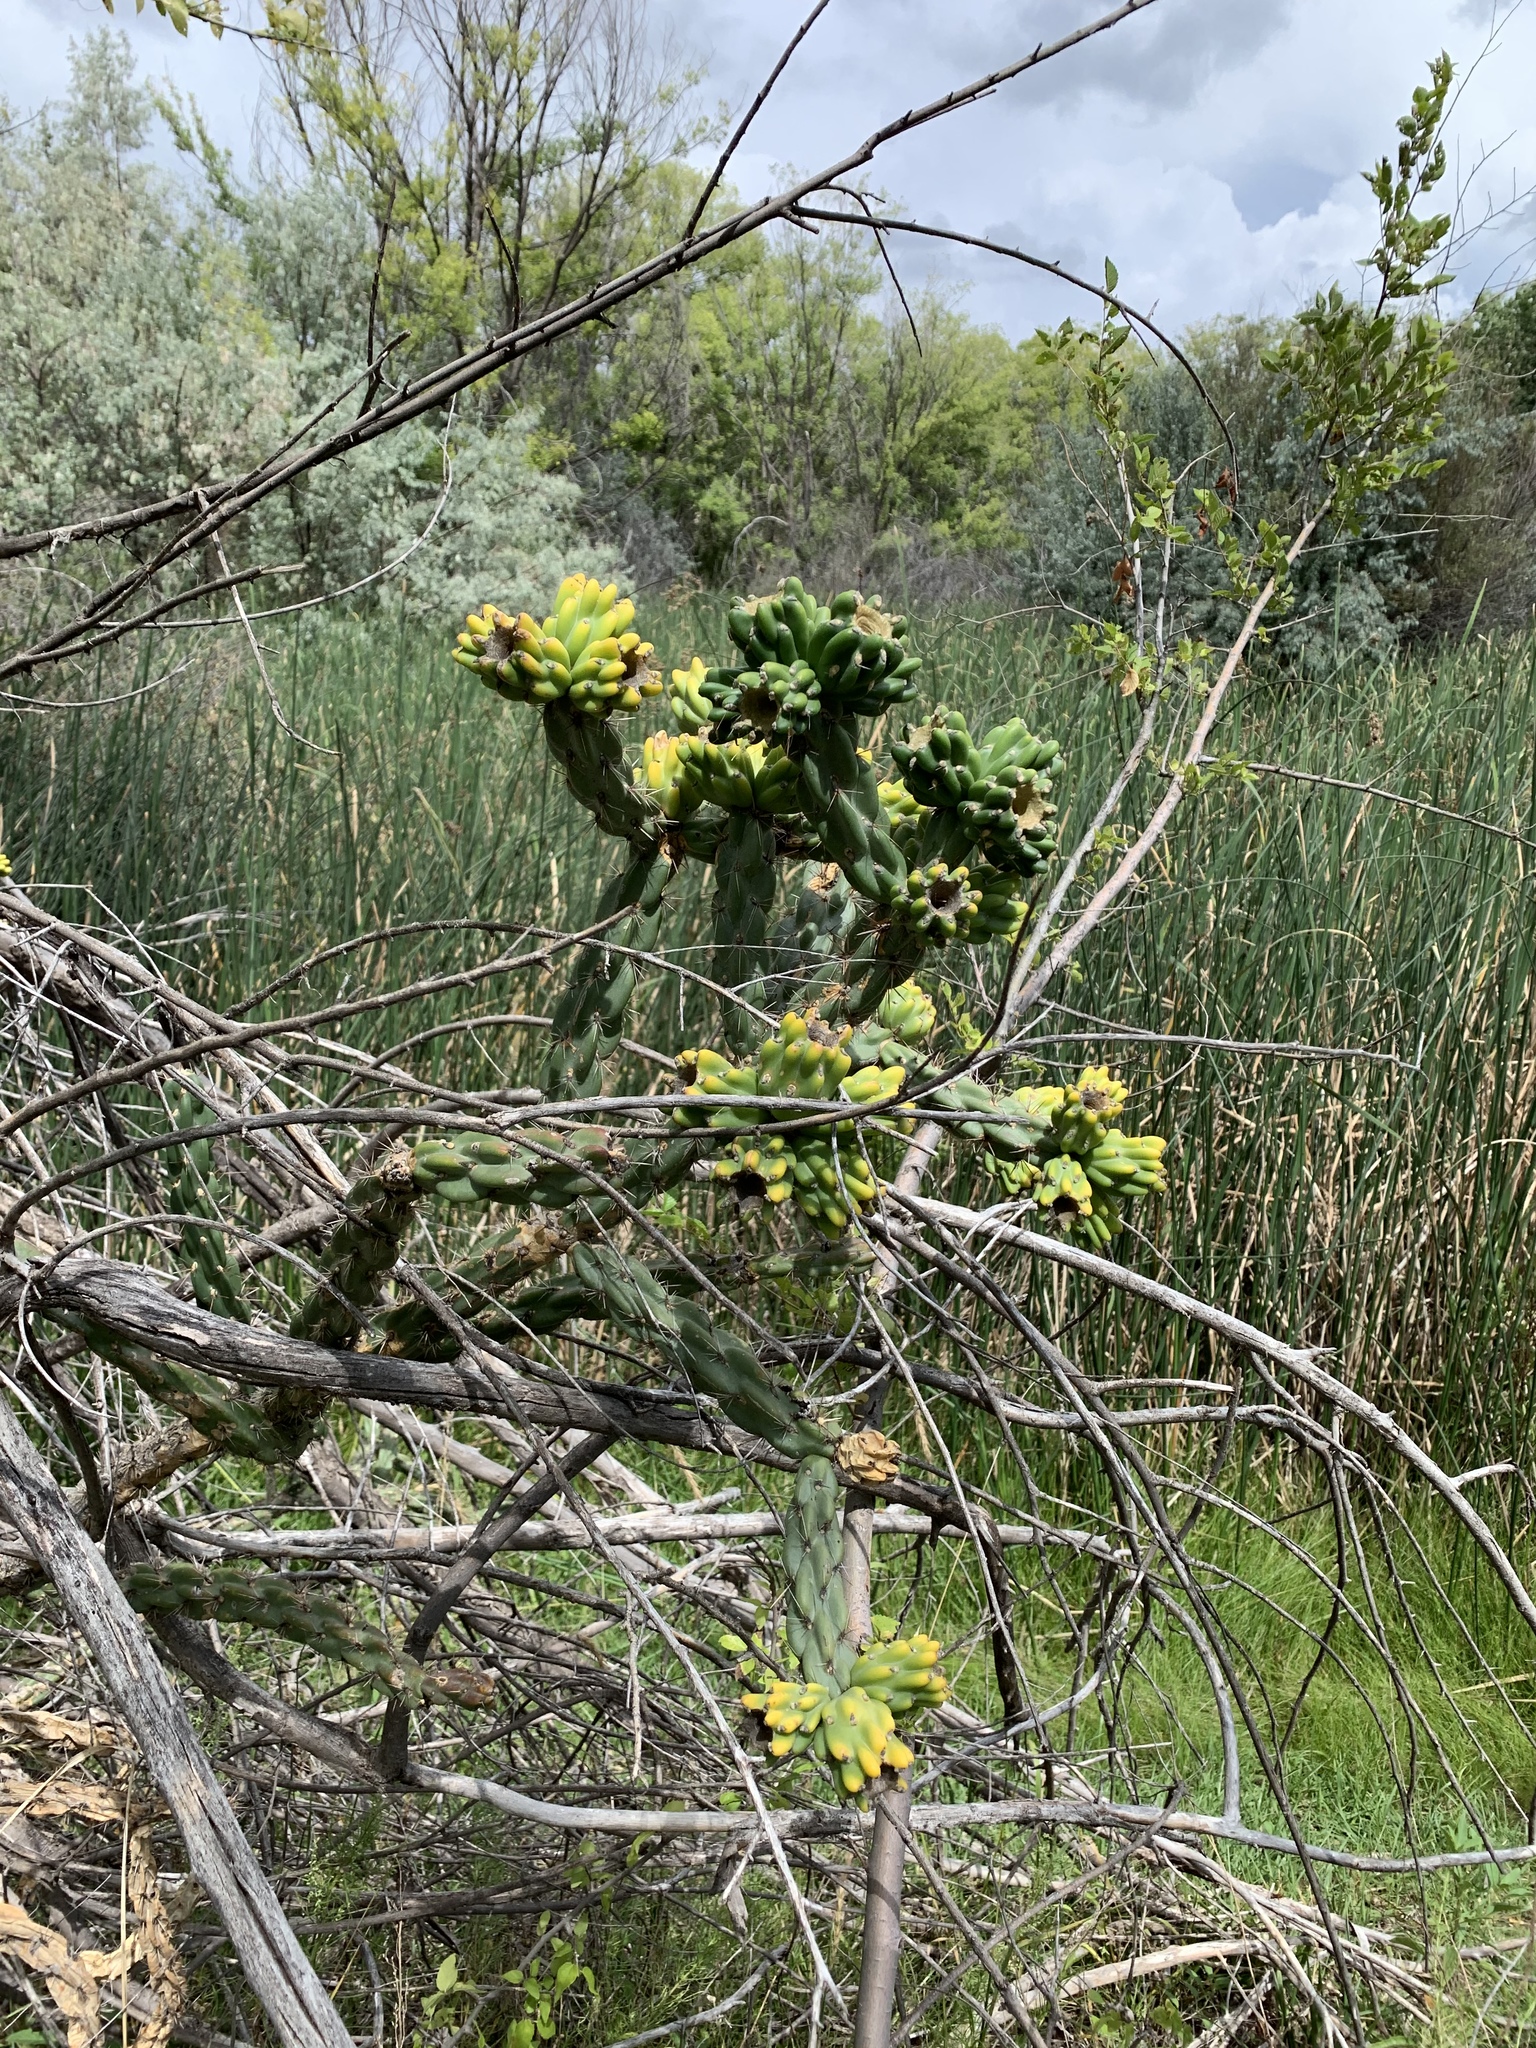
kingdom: Plantae
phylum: Tracheophyta
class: Magnoliopsida
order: Caryophyllales
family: Cactaceae
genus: Cylindropuntia
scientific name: Cylindropuntia imbricata
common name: Candelabrum cactus
